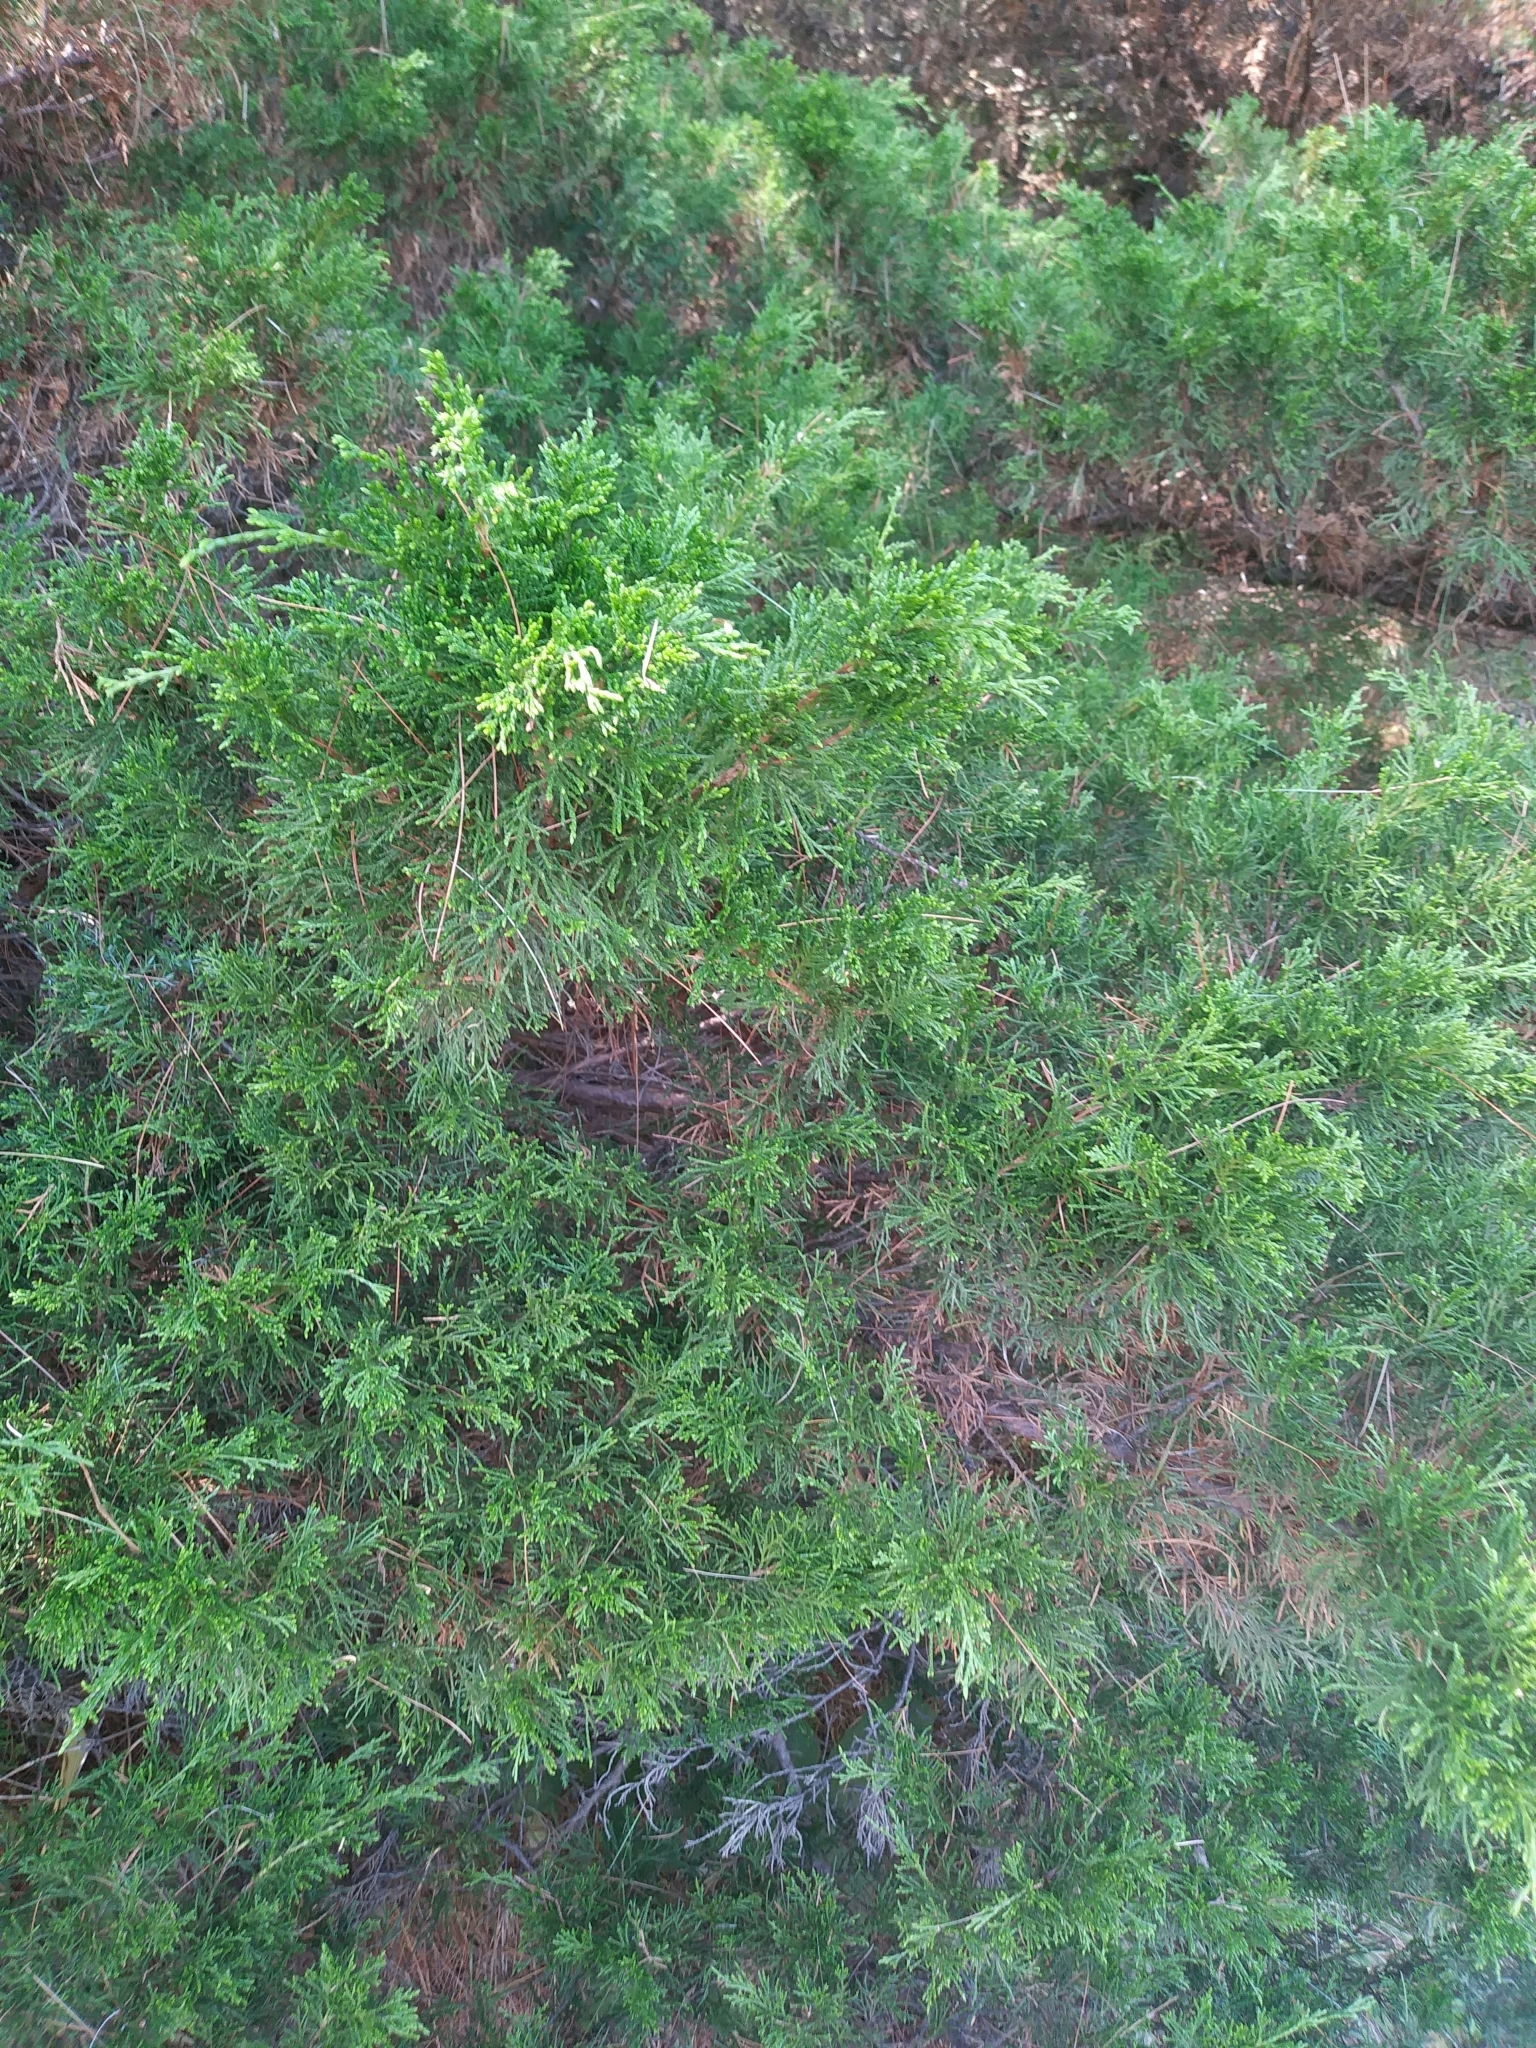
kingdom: Plantae
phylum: Tracheophyta
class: Pinopsida
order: Pinales
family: Cupressaceae
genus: Juniperus
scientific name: Juniperus virginiana
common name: Red juniper
